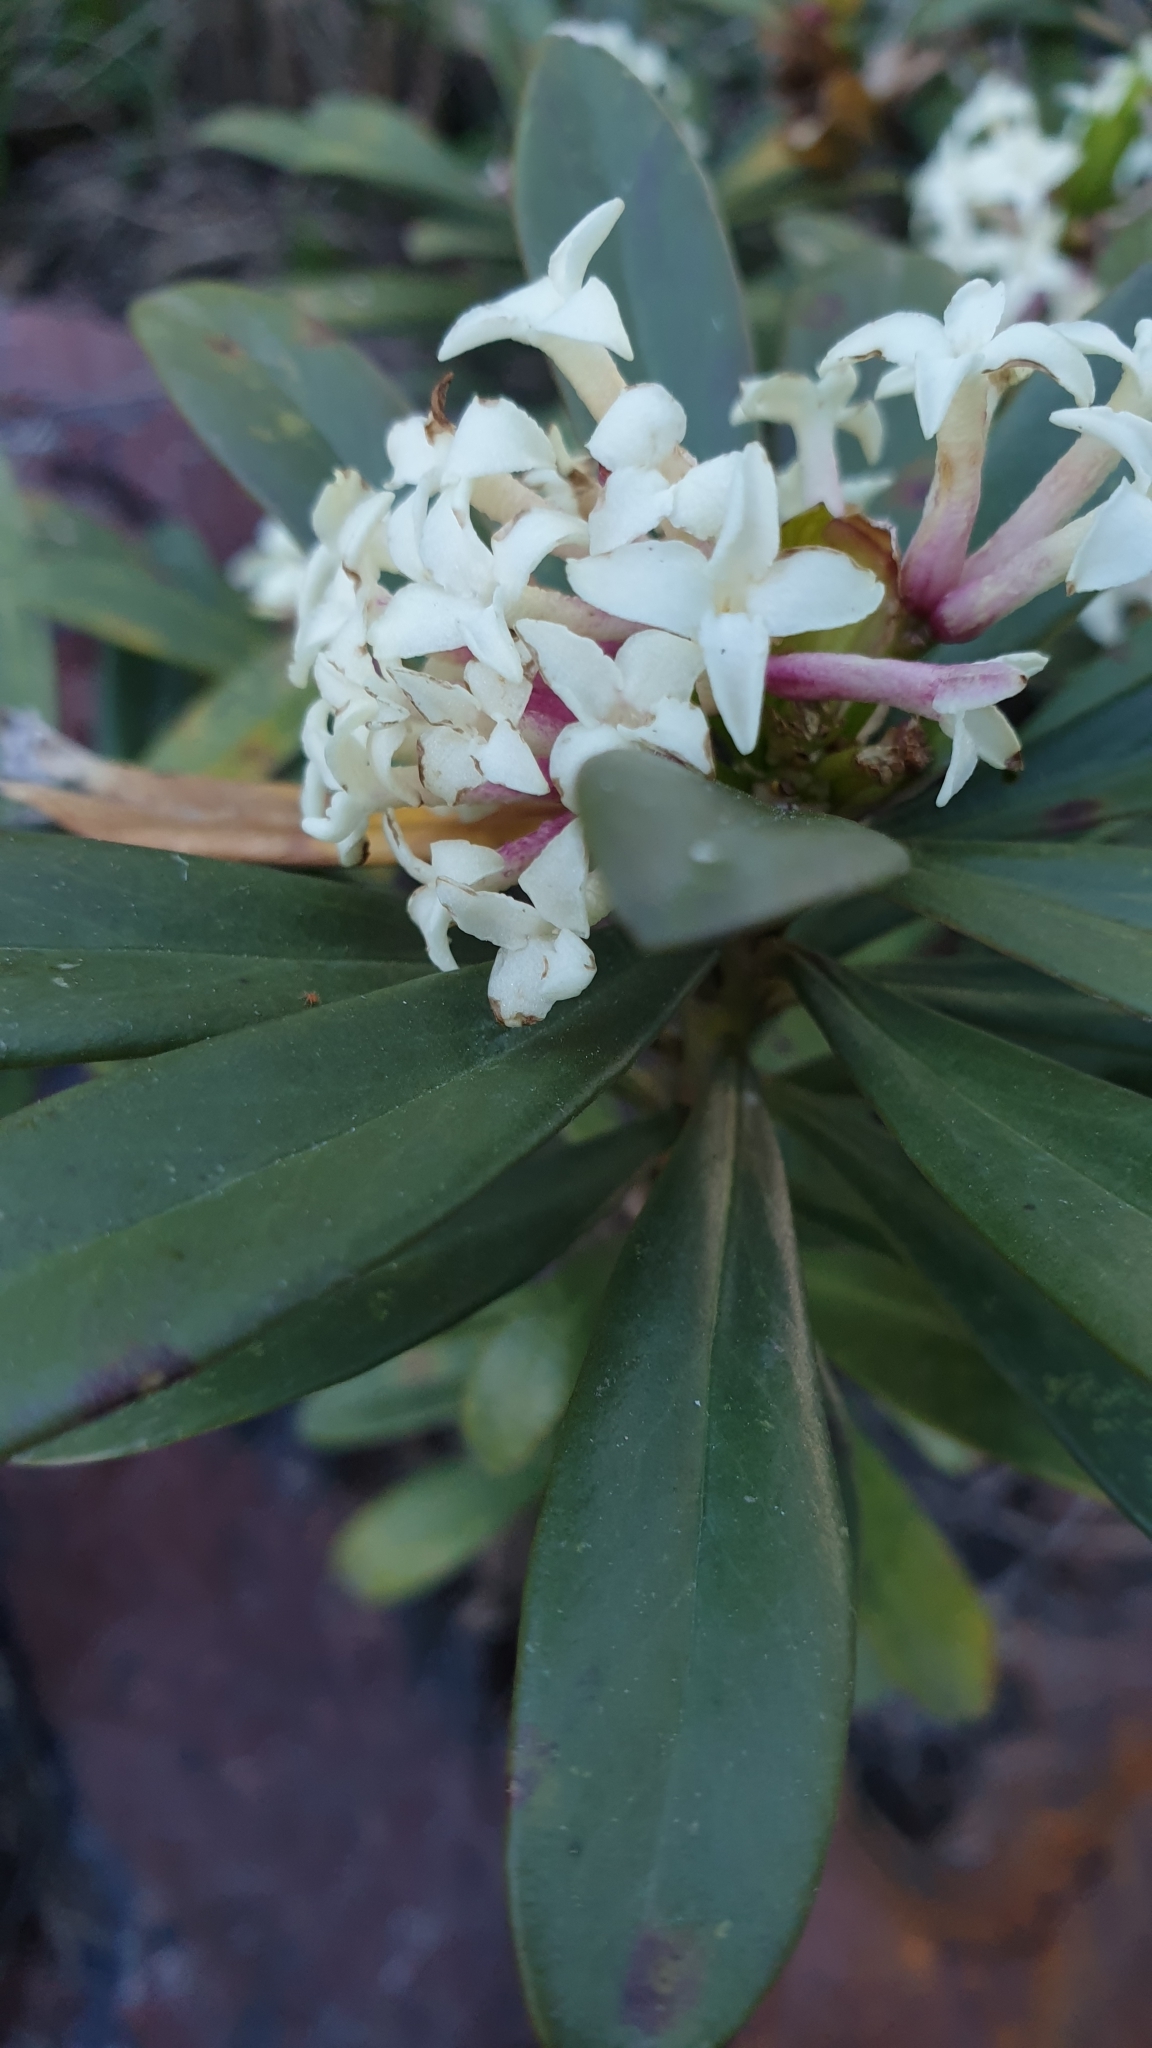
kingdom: Plantae
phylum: Tracheophyta
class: Magnoliopsida
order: Malvales
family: Thymelaeaceae
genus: Daphne
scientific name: Daphne glomerata
